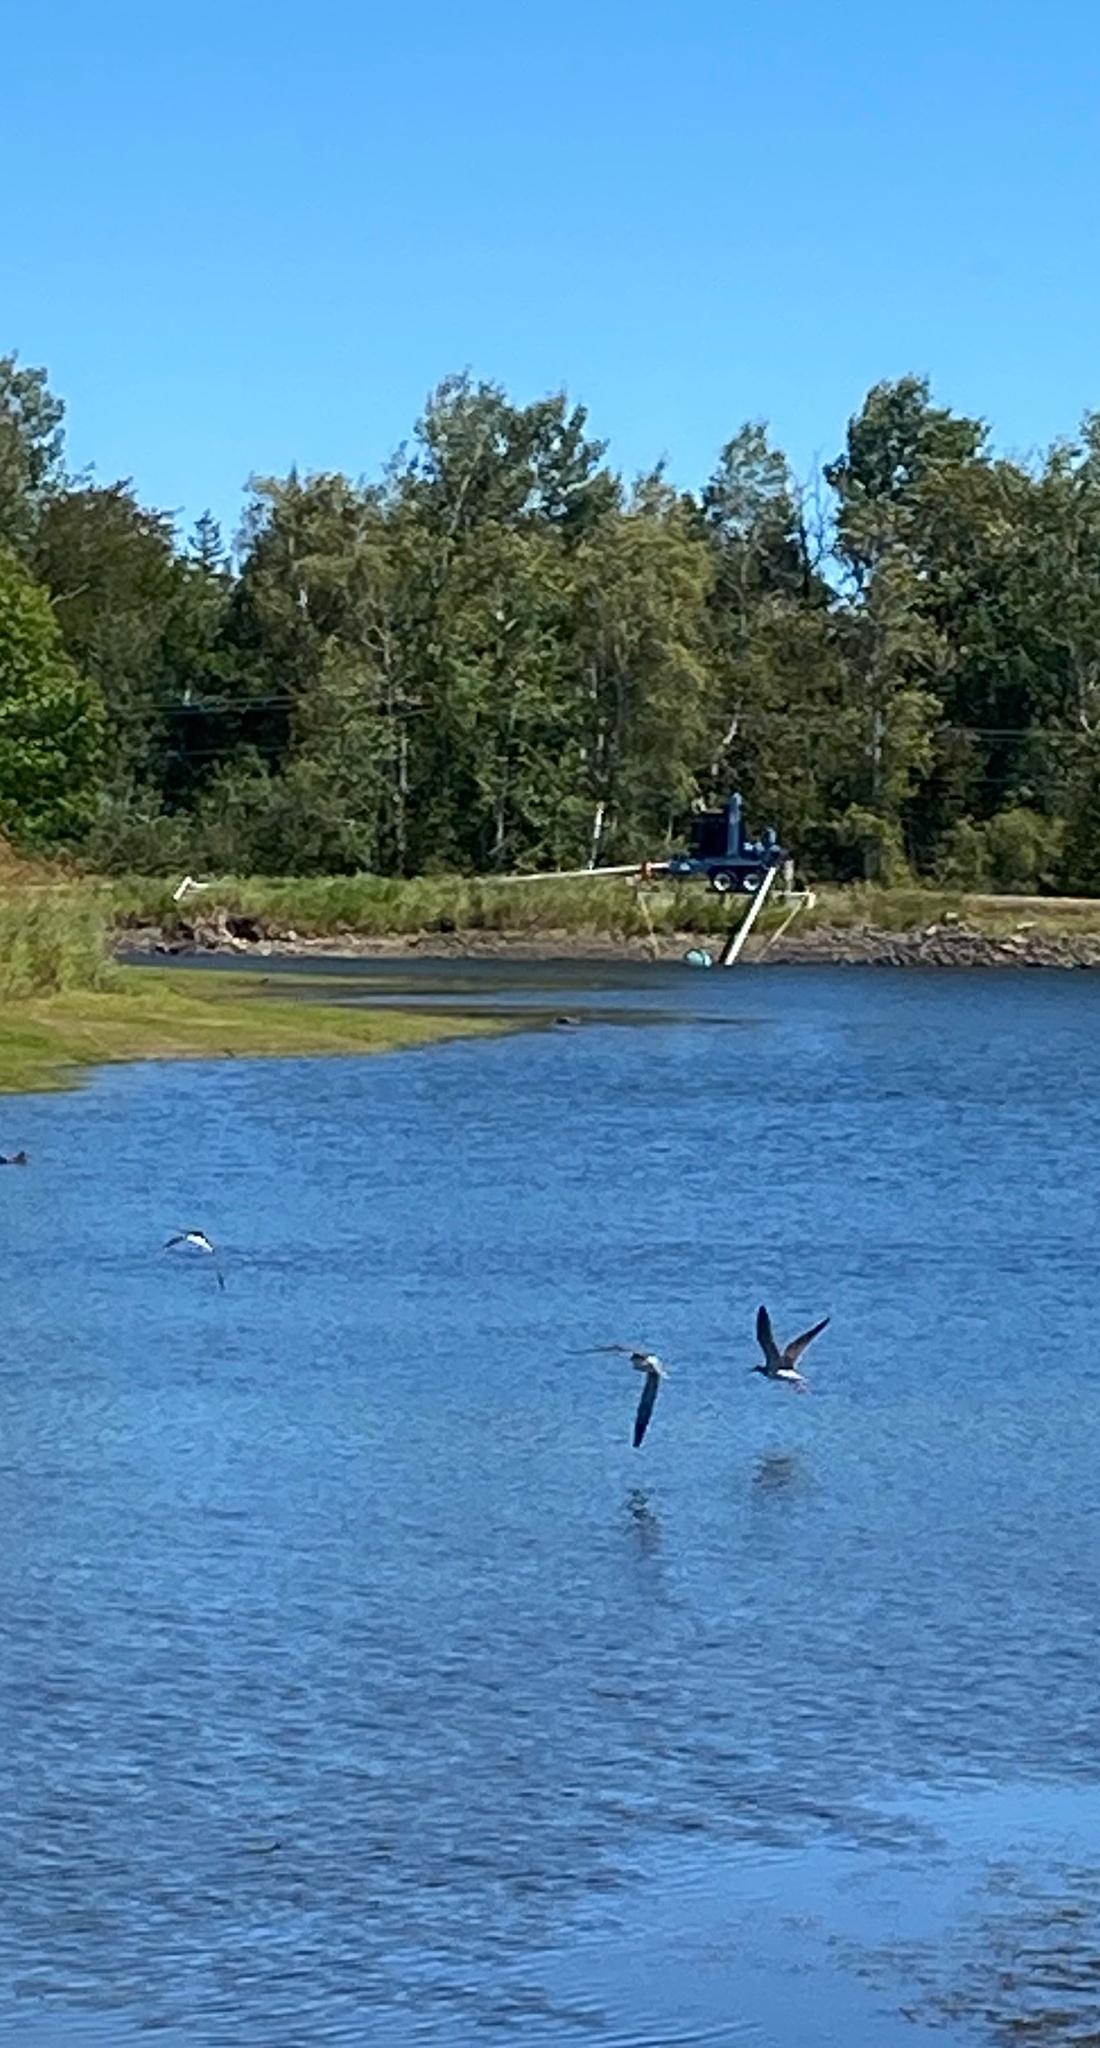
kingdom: Animalia
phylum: Chordata
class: Aves
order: Charadriiformes
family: Scolopacidae
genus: Tringa
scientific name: Tringa melanoleuca
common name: Greater yellowlegs
